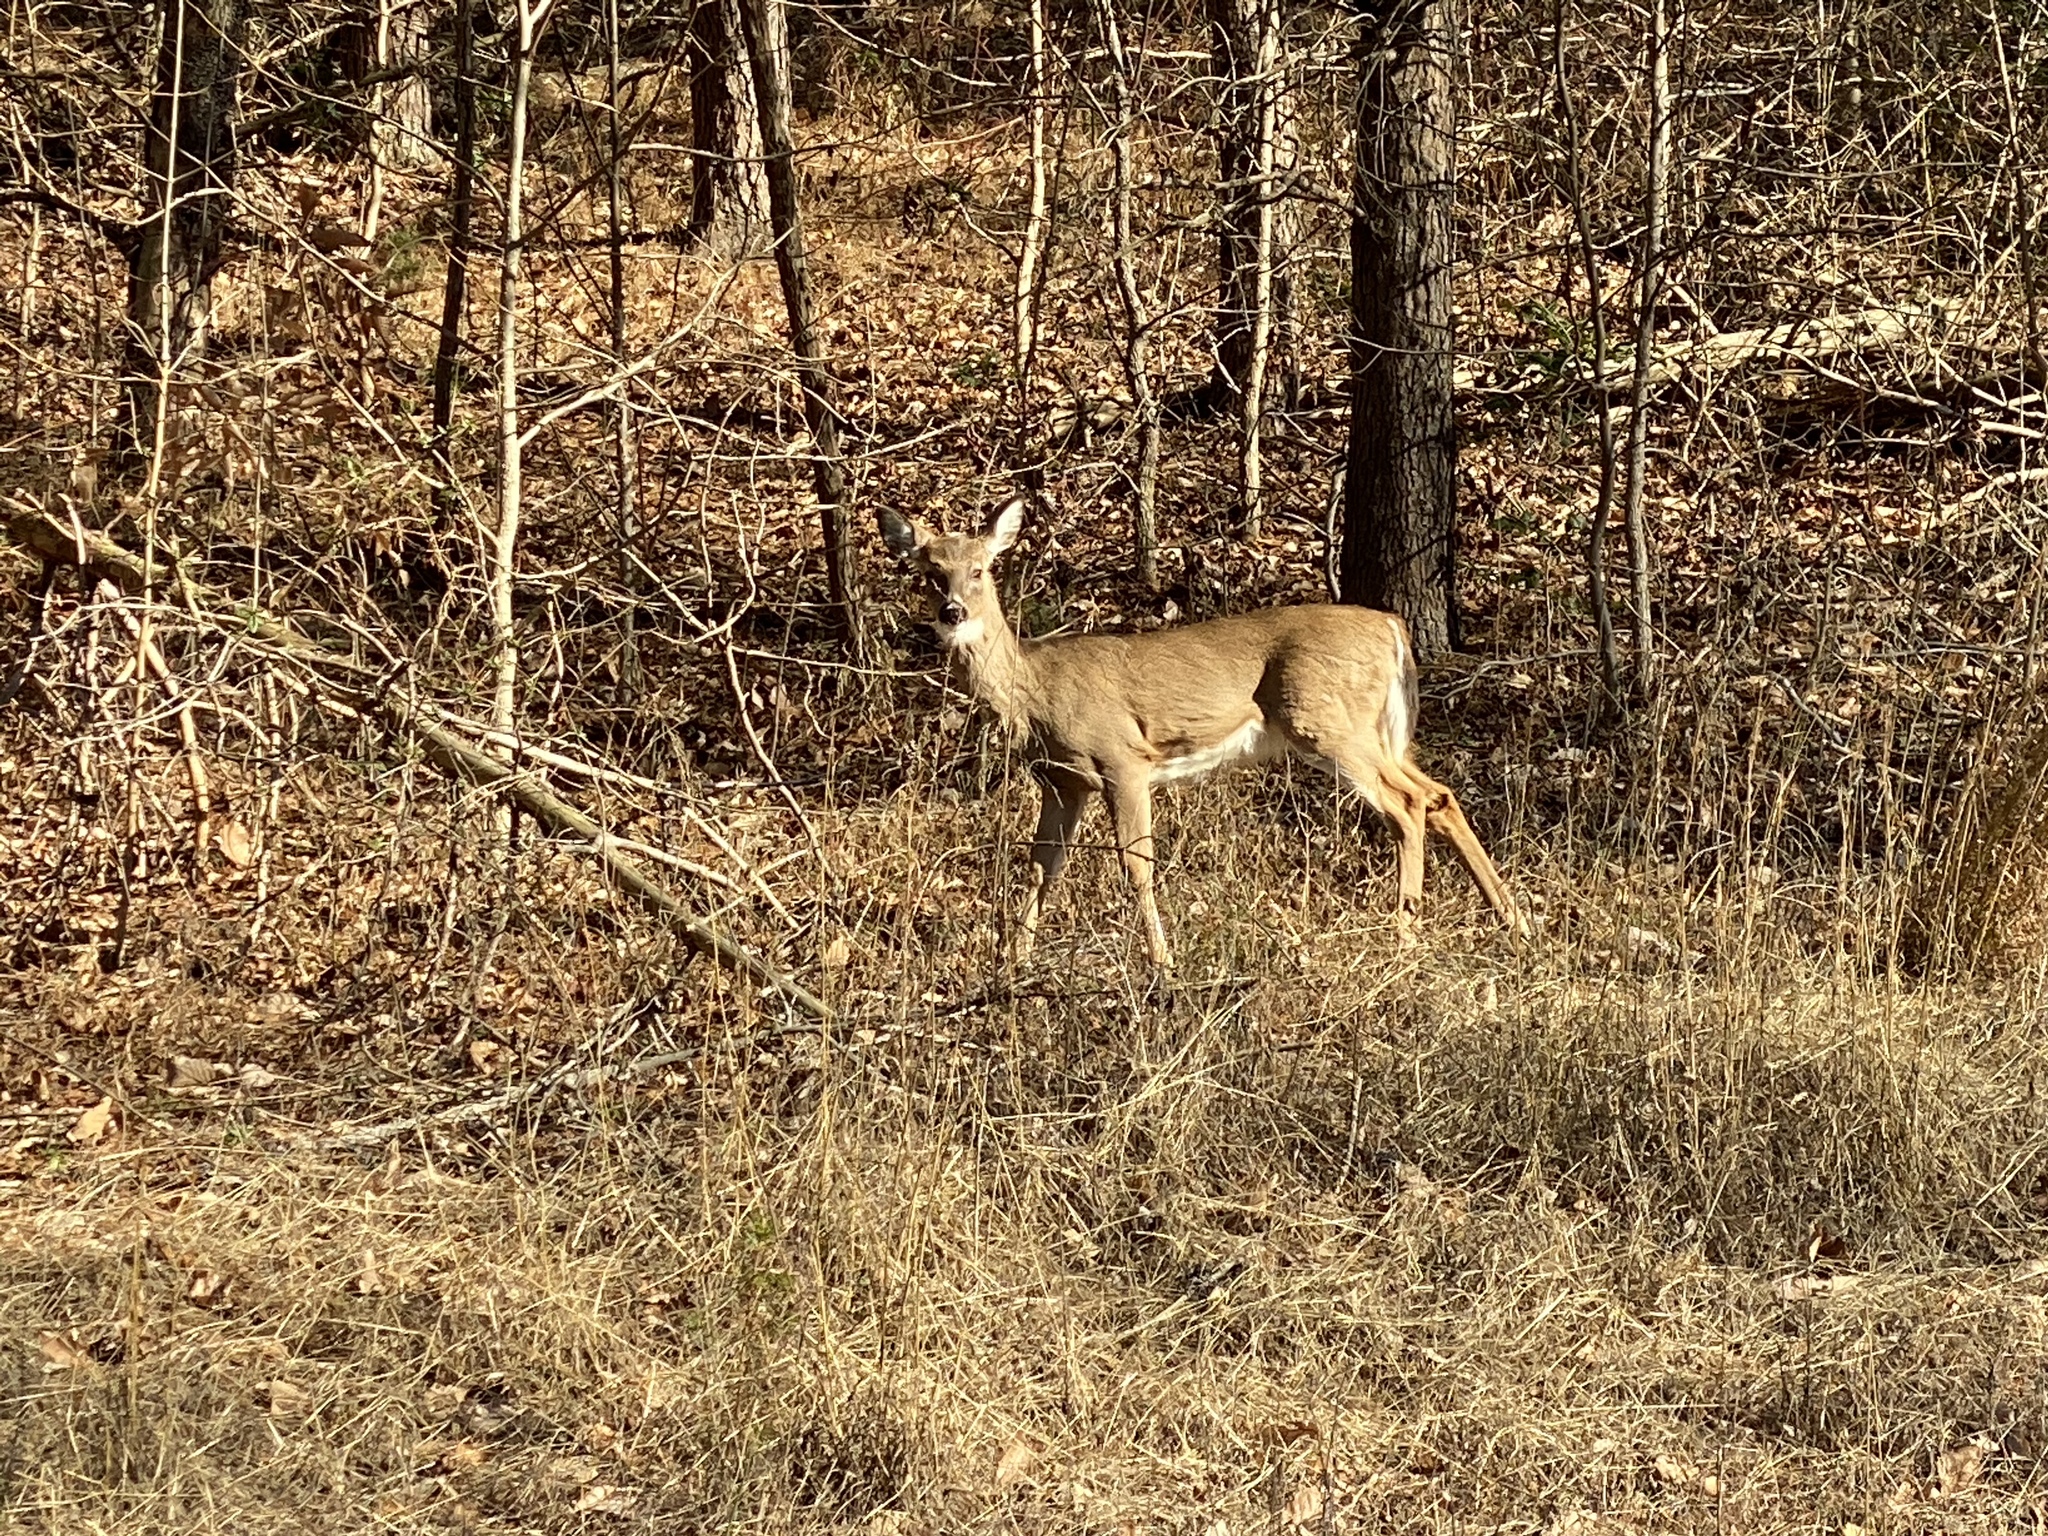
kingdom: Animalia
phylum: Chordata
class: Mammalia
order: Artiodactyla
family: Cervidae
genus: Odocoileus
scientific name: Odocoileus virginianus
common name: White-tailed deer
